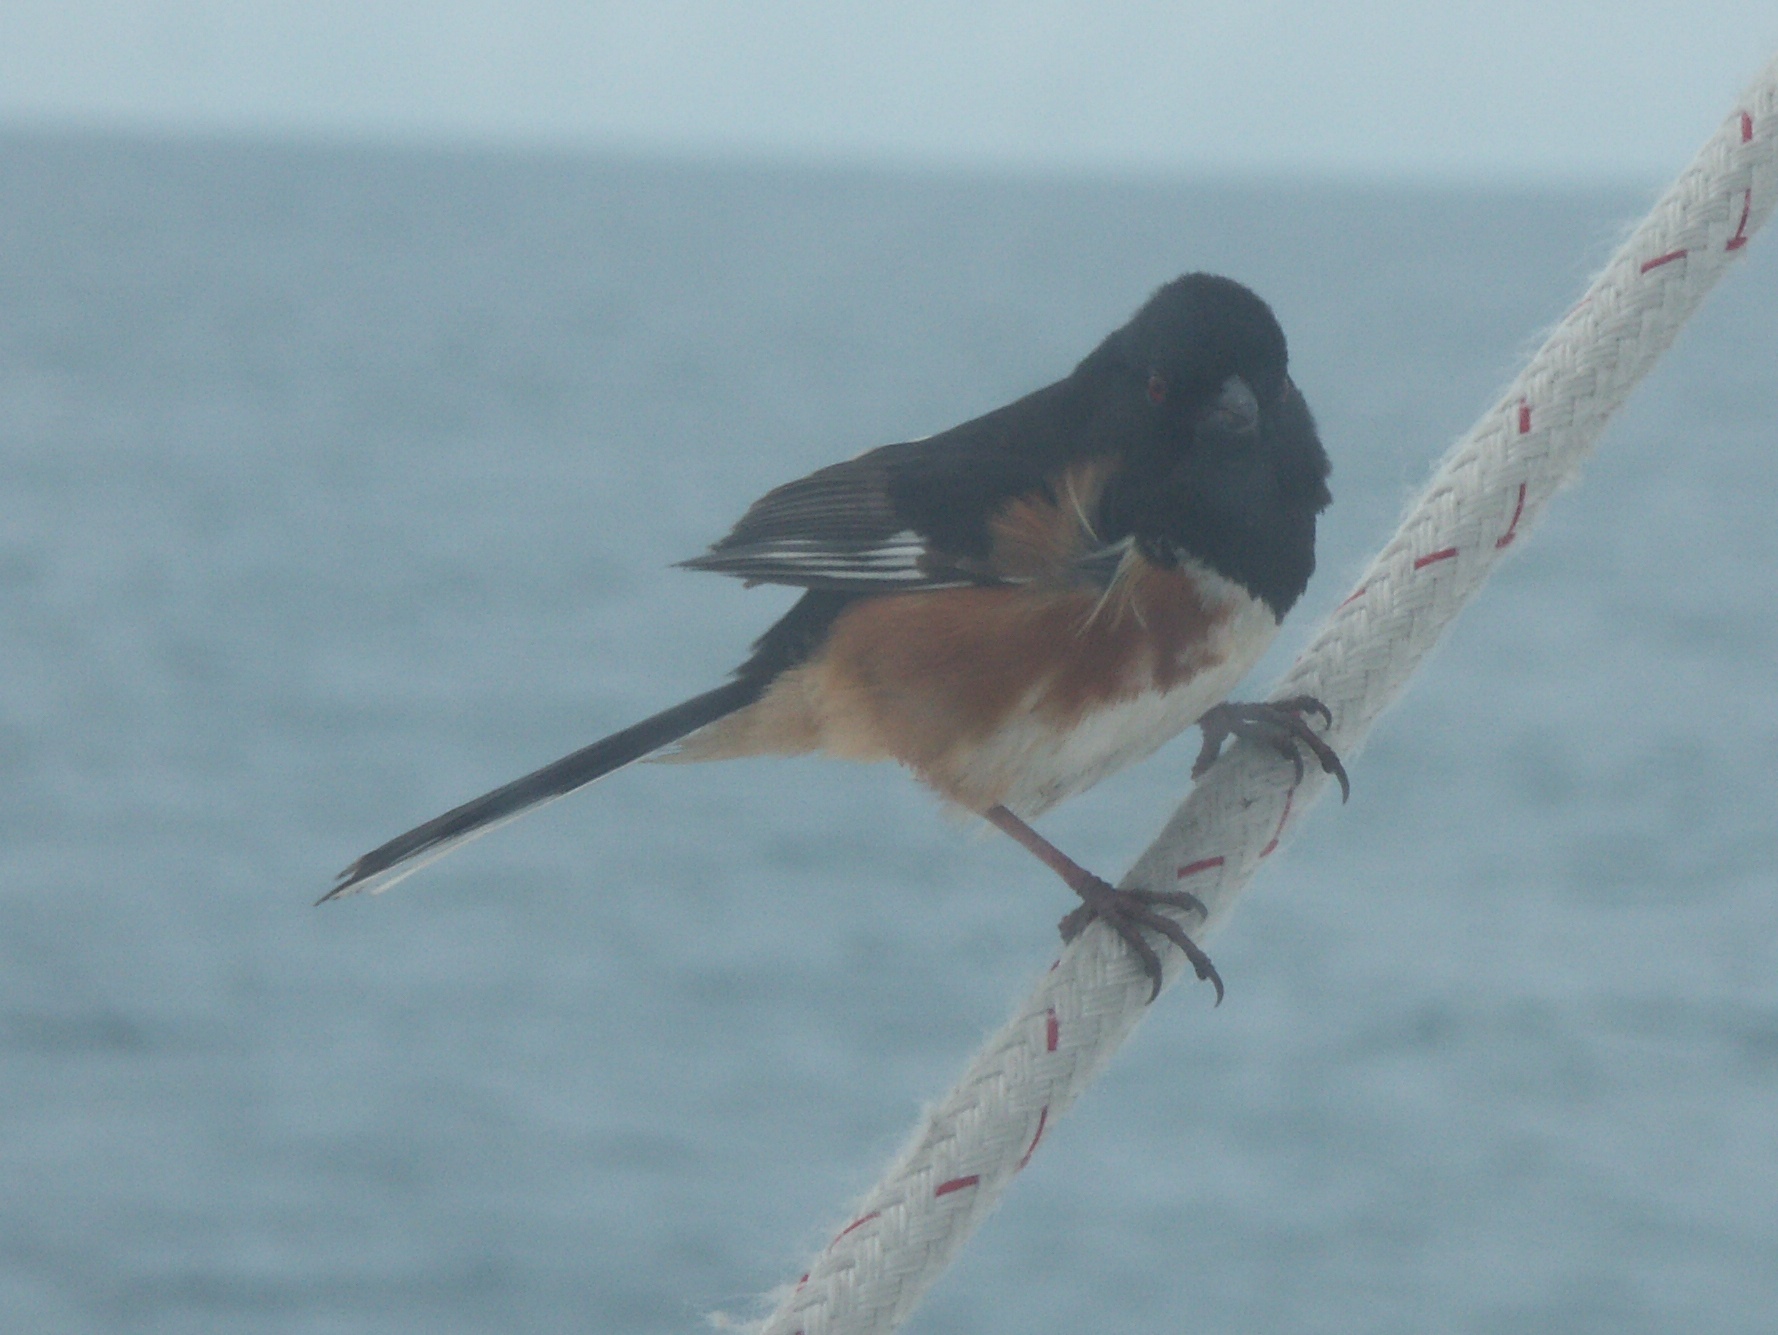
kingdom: Animalia
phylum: Chordata
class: Aves
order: Passeriformes
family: Passerellidae
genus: Pipilo
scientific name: Pipilo erythrophthalmus
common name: Eastern towhee
